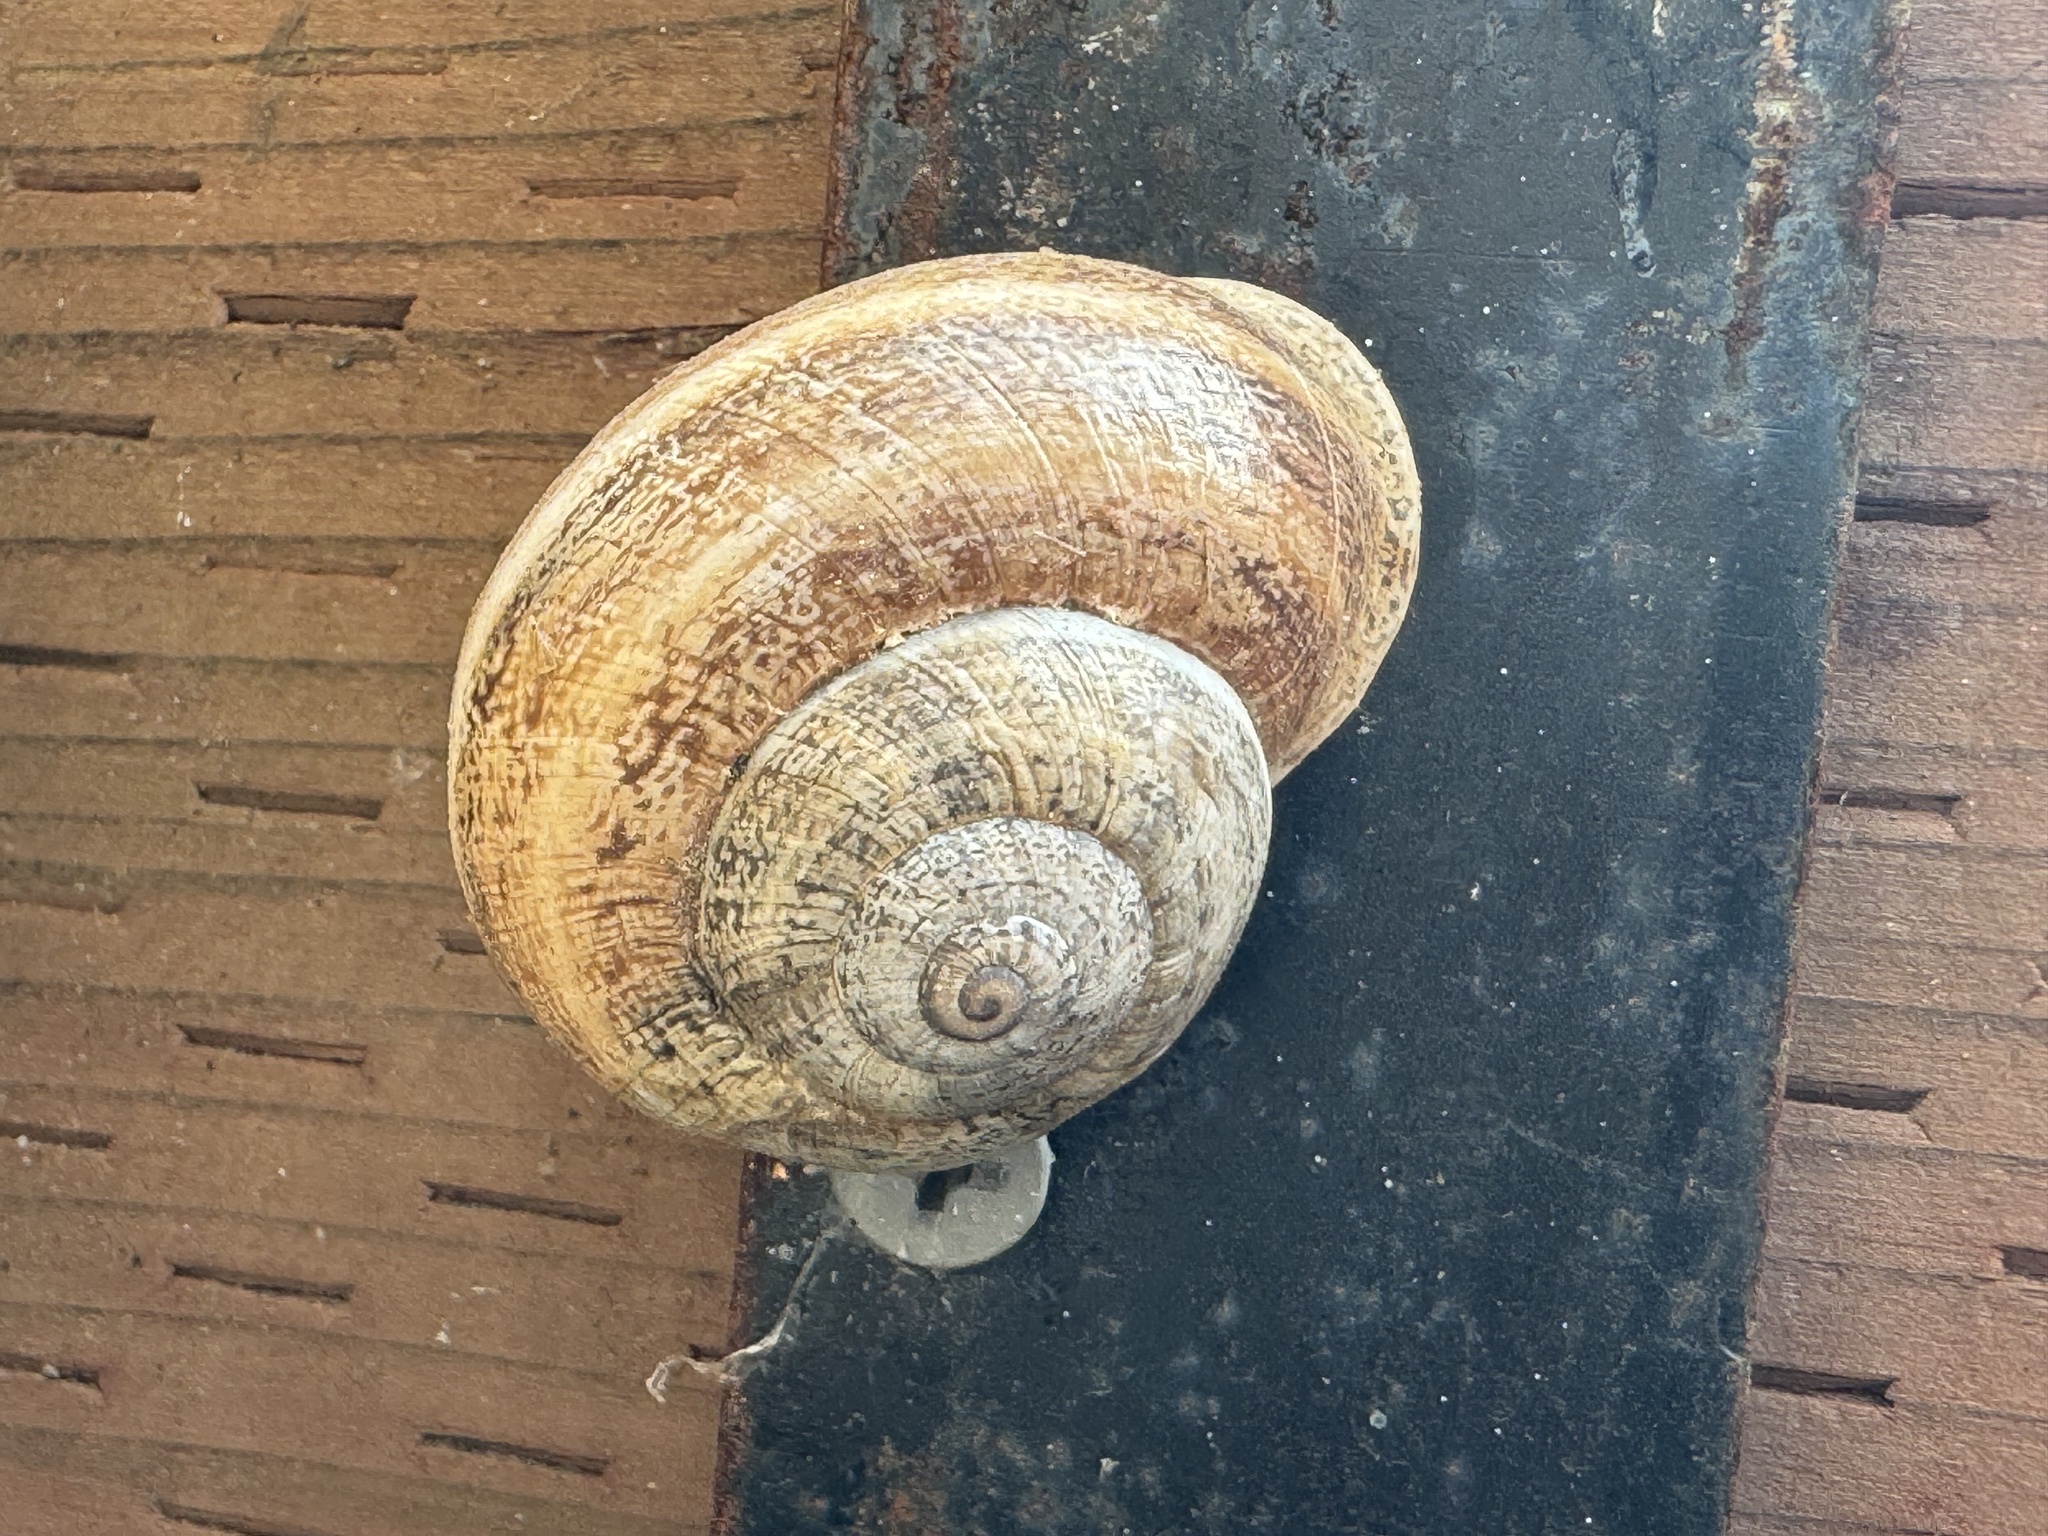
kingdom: Animalia
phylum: Mollusca
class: Gastropoda
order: Stylommatophora
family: Helicidae
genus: Otala
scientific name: Otala lactea
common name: Milk snail
